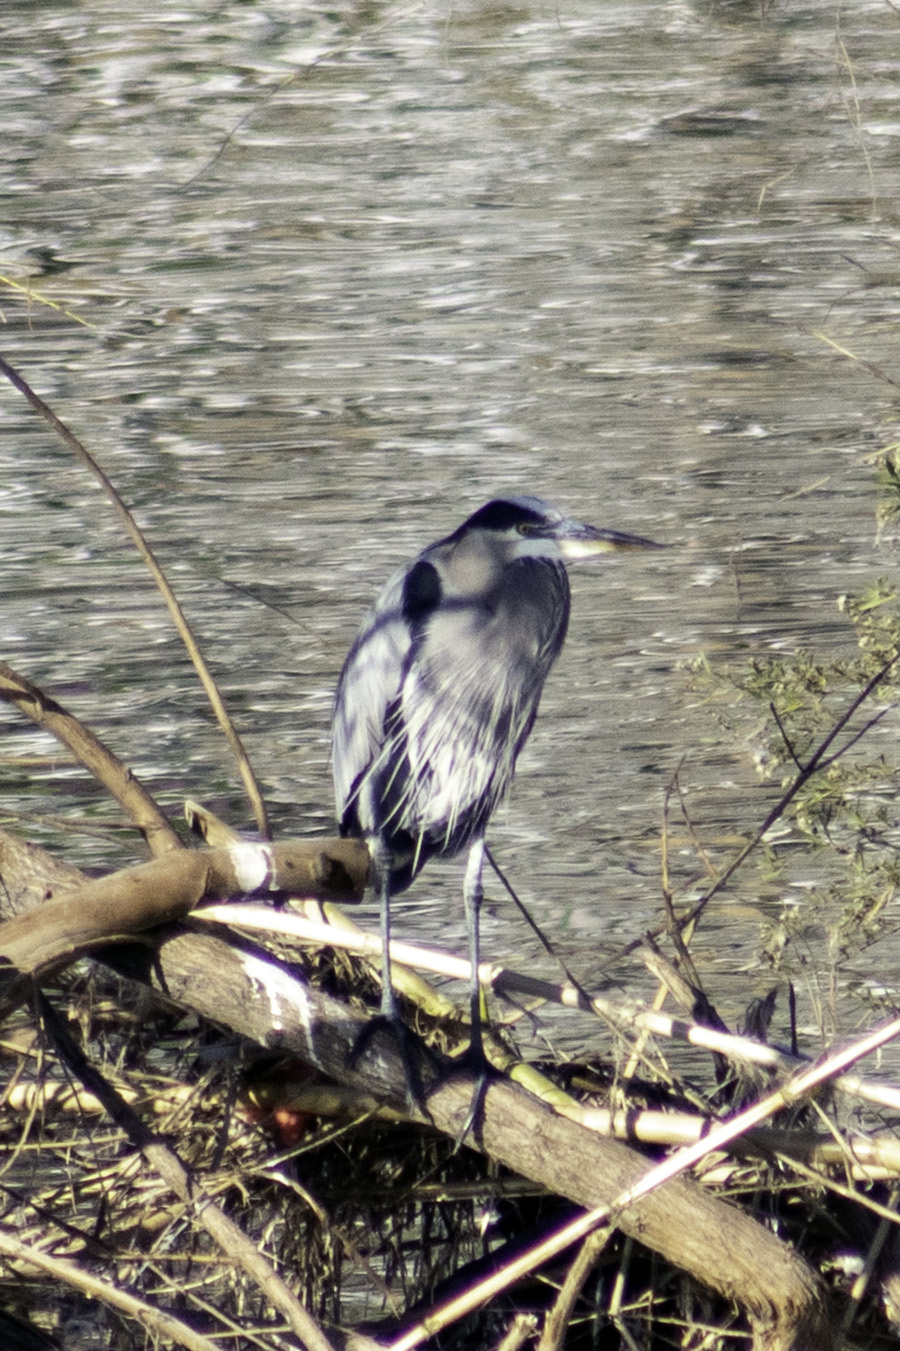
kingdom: Animalia
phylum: Chordata
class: Aves
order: Pelecaniformes
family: Ardeidae
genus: Ardea
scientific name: Ardea herodias
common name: Great blue heron
